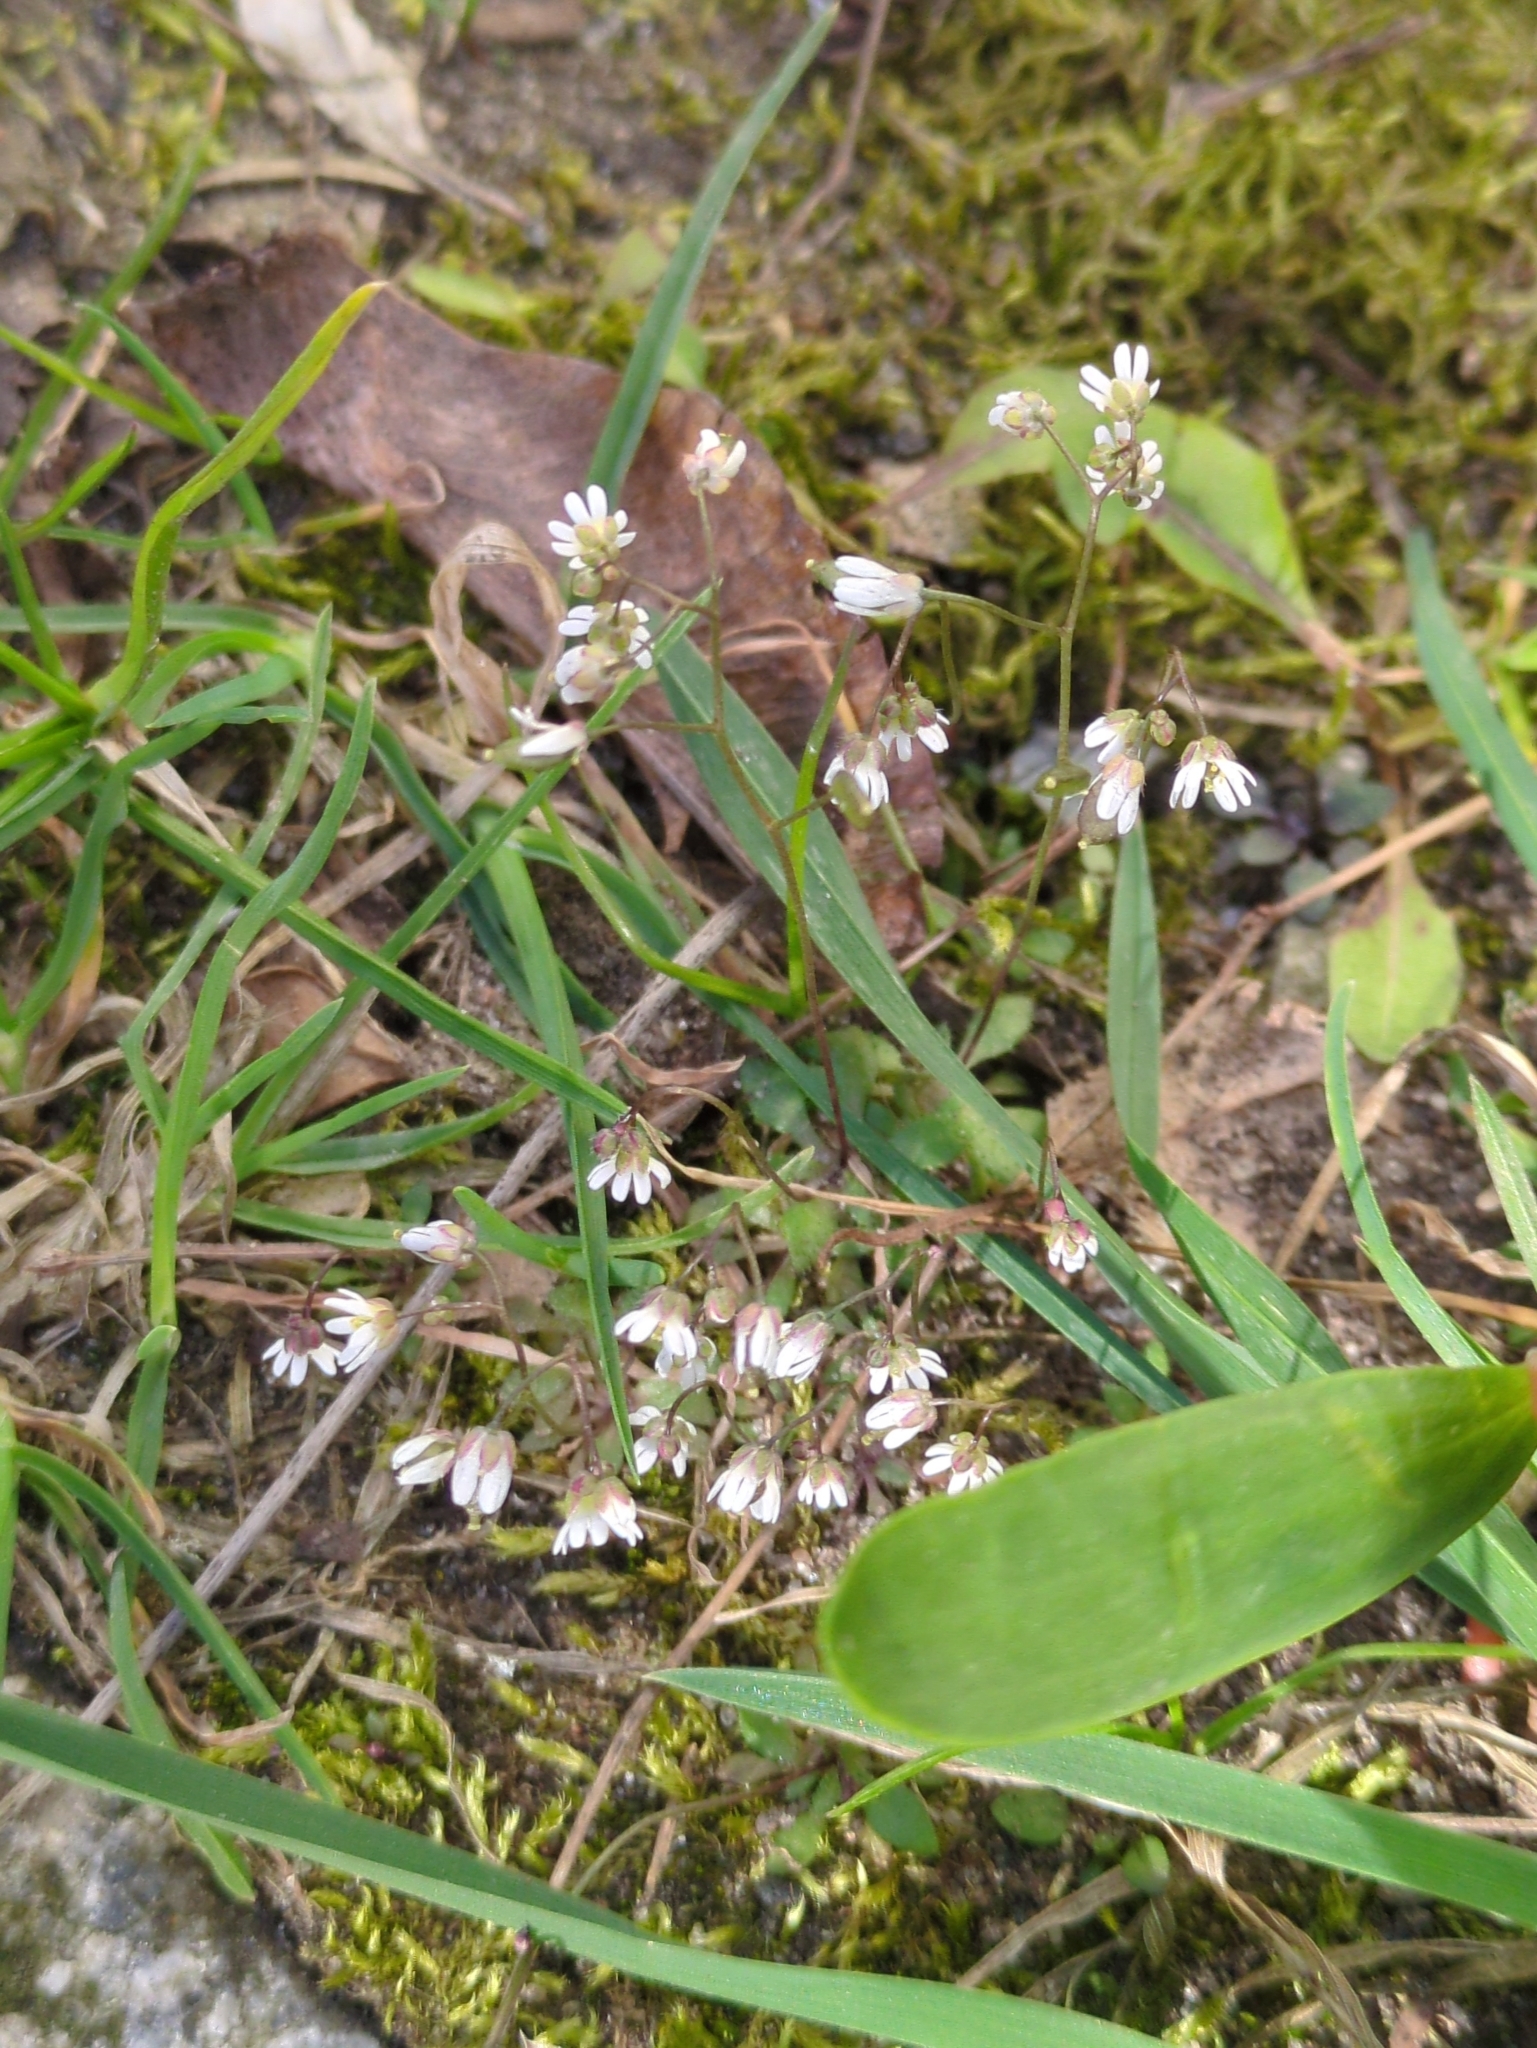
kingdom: Plantae
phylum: Tracheophyta
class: Magnoliopsida
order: Brassicales
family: Brassicaceae
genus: Draba
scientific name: Draba verna
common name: Spring draba
